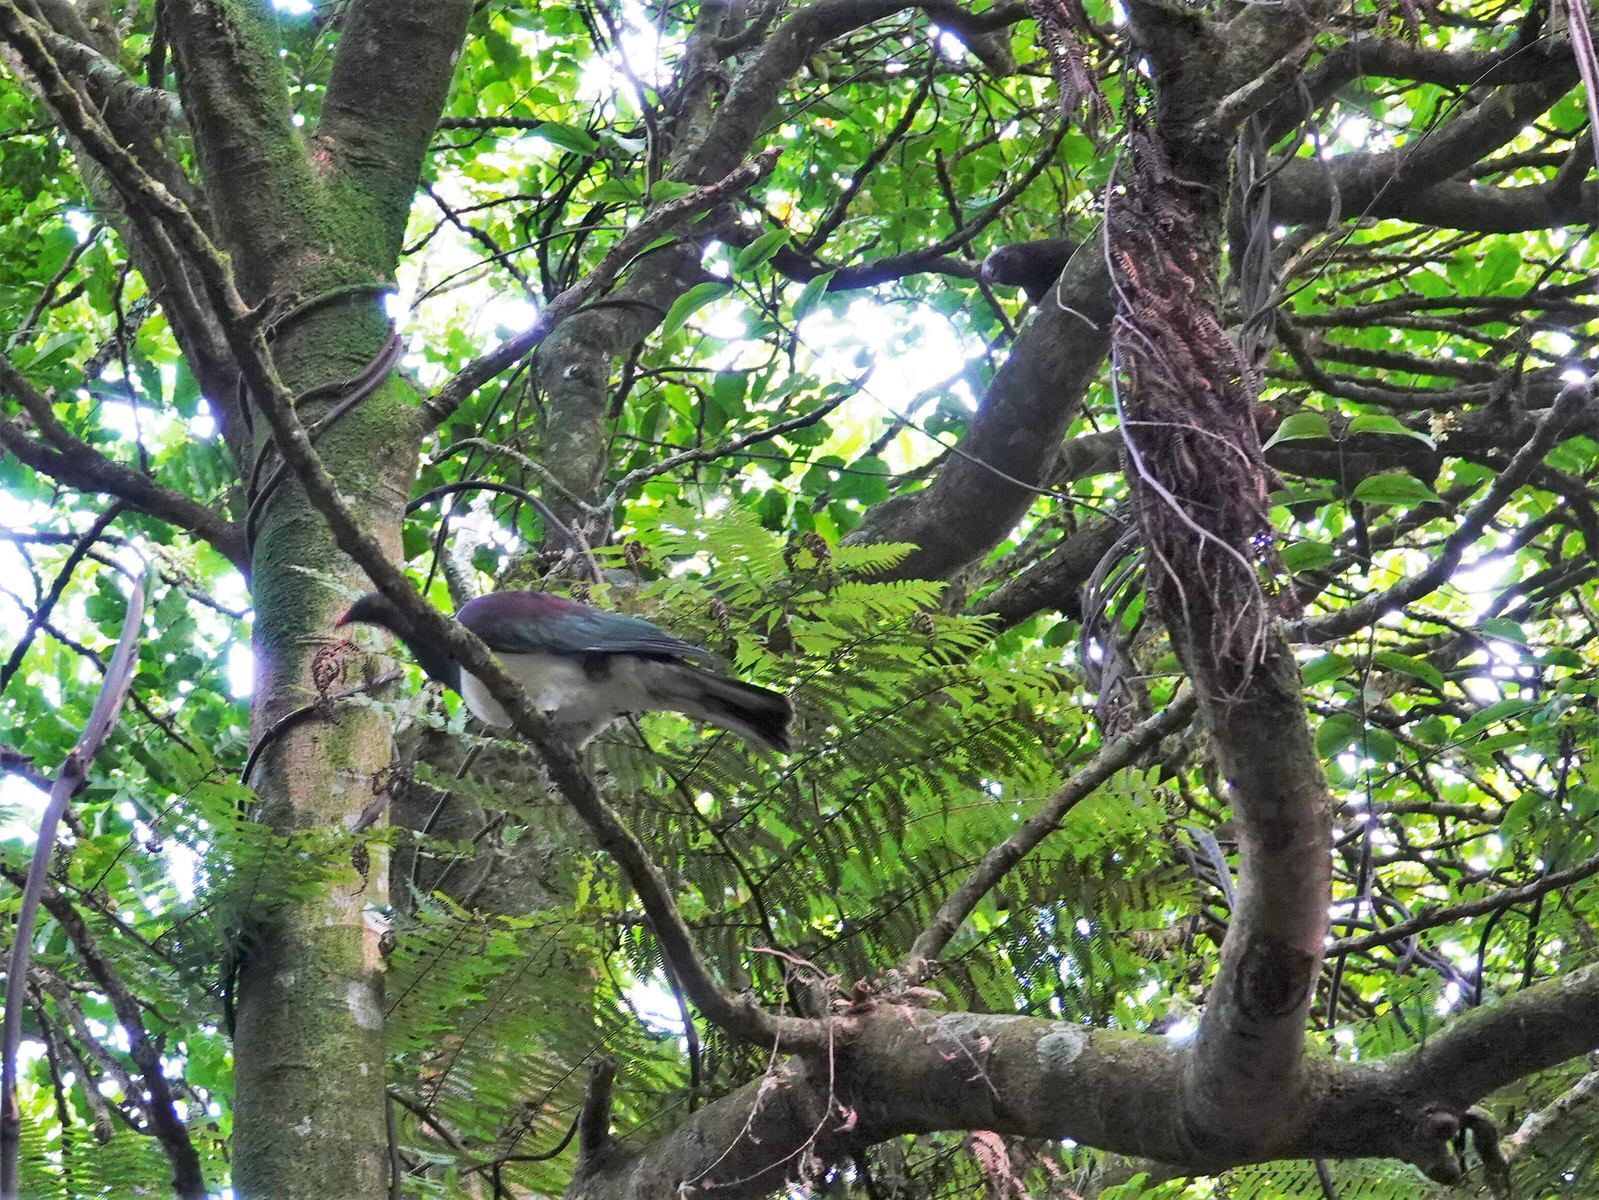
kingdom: Animalia
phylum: Chordata
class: Aves
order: Psittaciformes
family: Psittacidae
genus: Nestor
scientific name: Nestor meridionalis
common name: New zealand kaka
